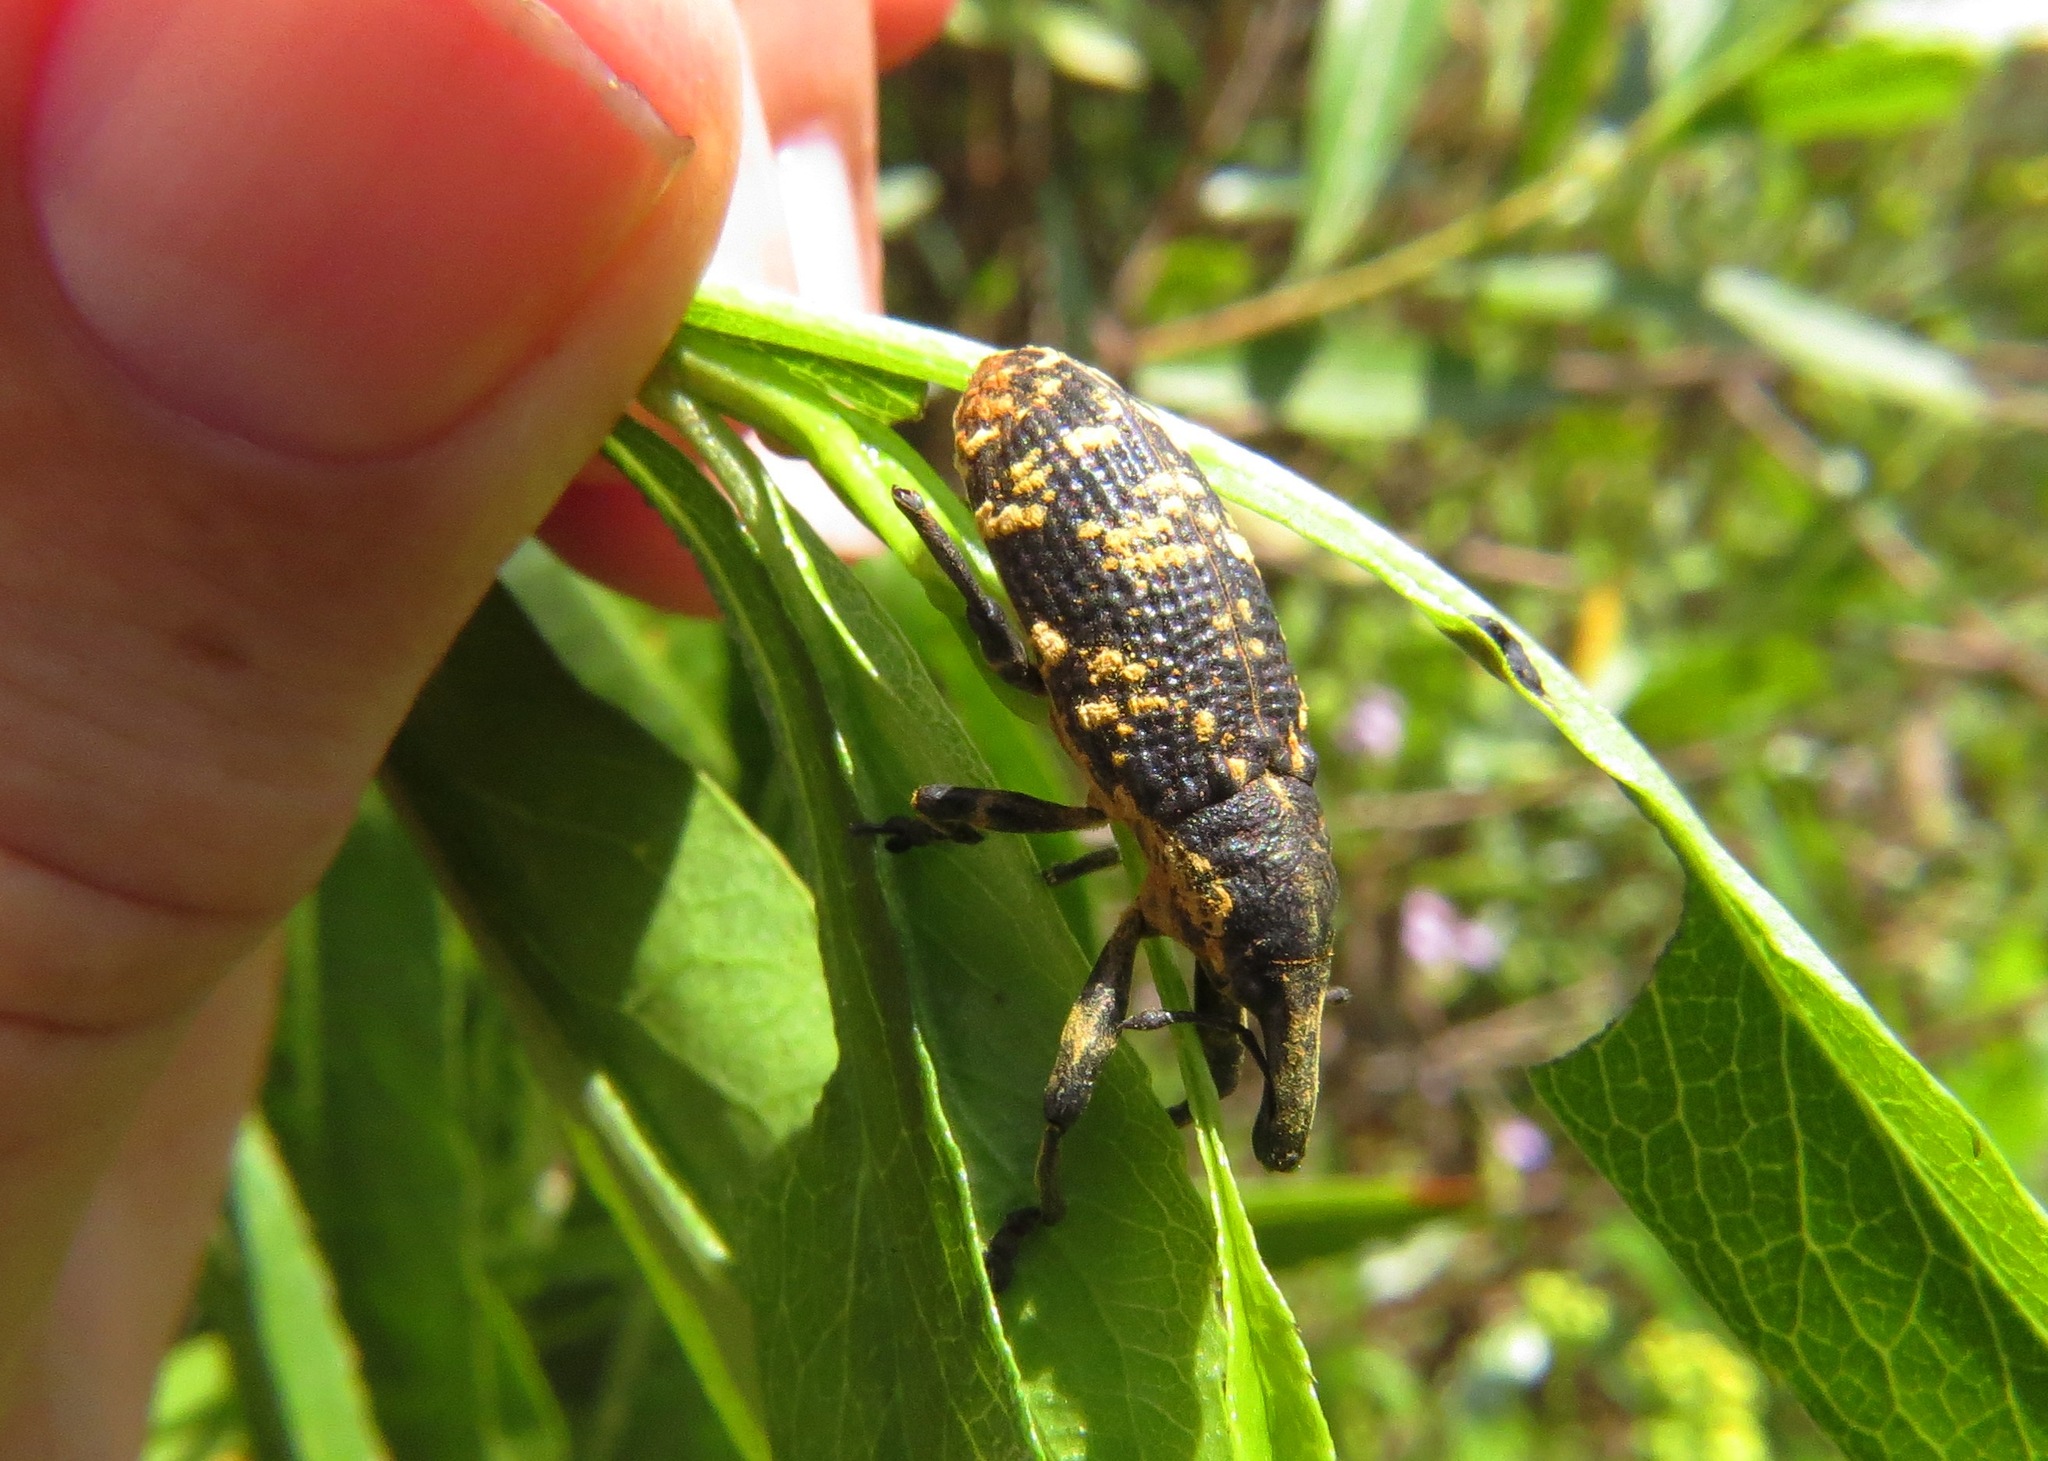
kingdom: Animalia
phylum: Arthropoda
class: Insecta
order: Coleoptera
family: Curculionidae
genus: Lixus
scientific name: Lixus sturmii
